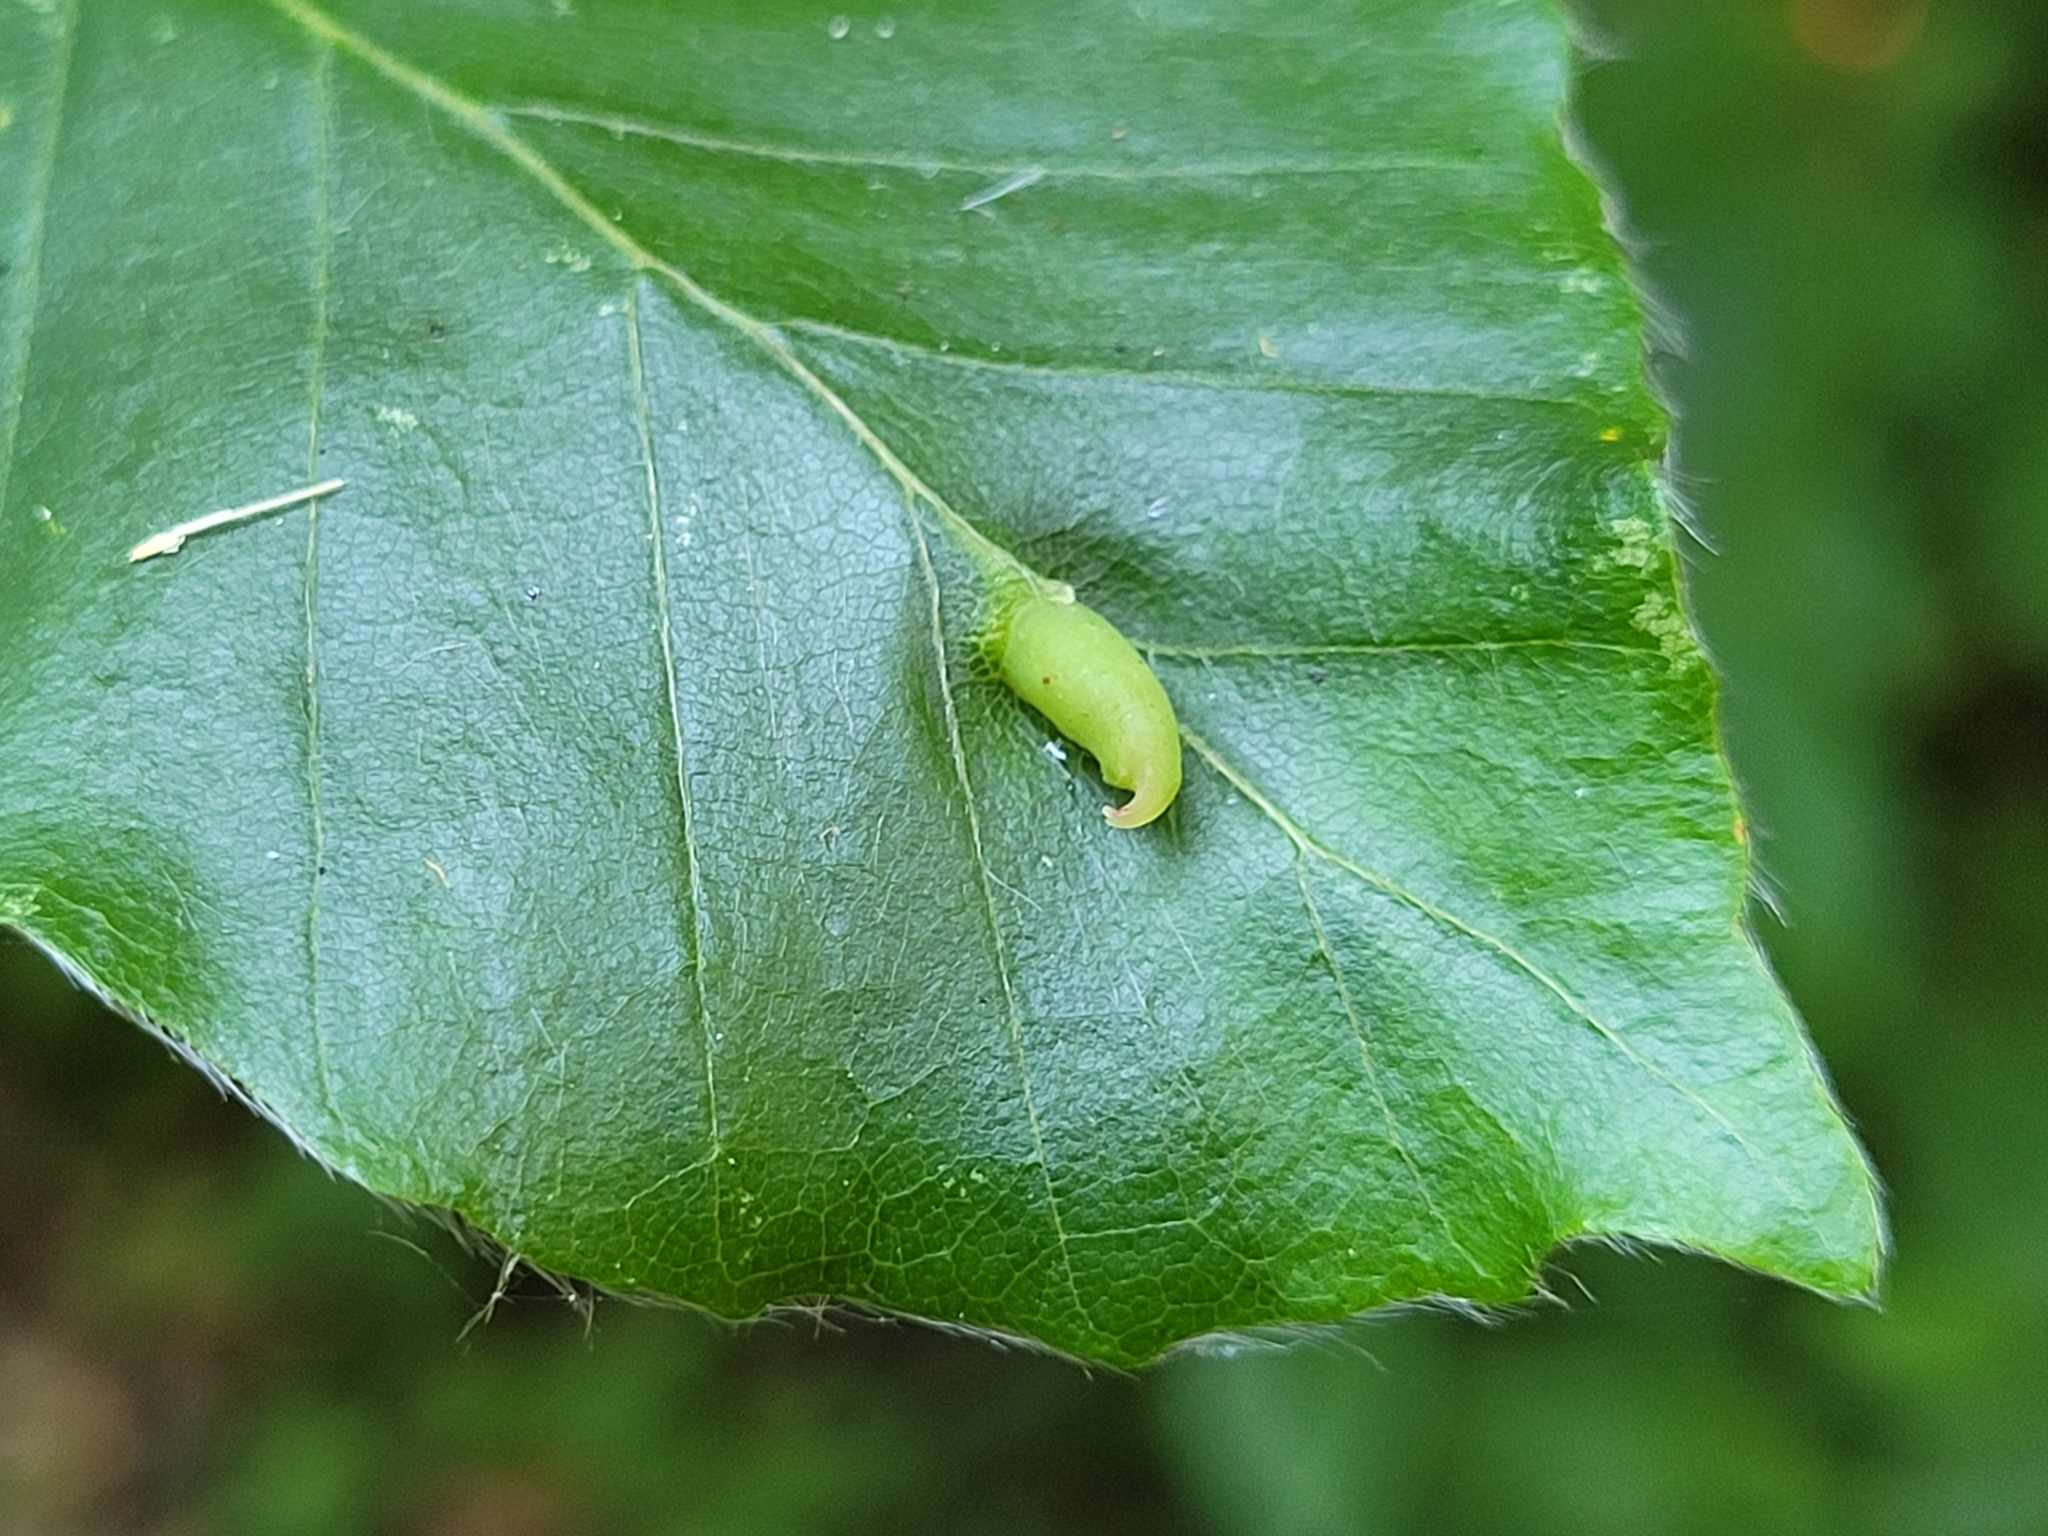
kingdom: Animalia
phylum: Arthropoda
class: Insecta
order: Diptera
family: Cecidomyiidae
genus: Mikiola
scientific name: Mikiola fagi
